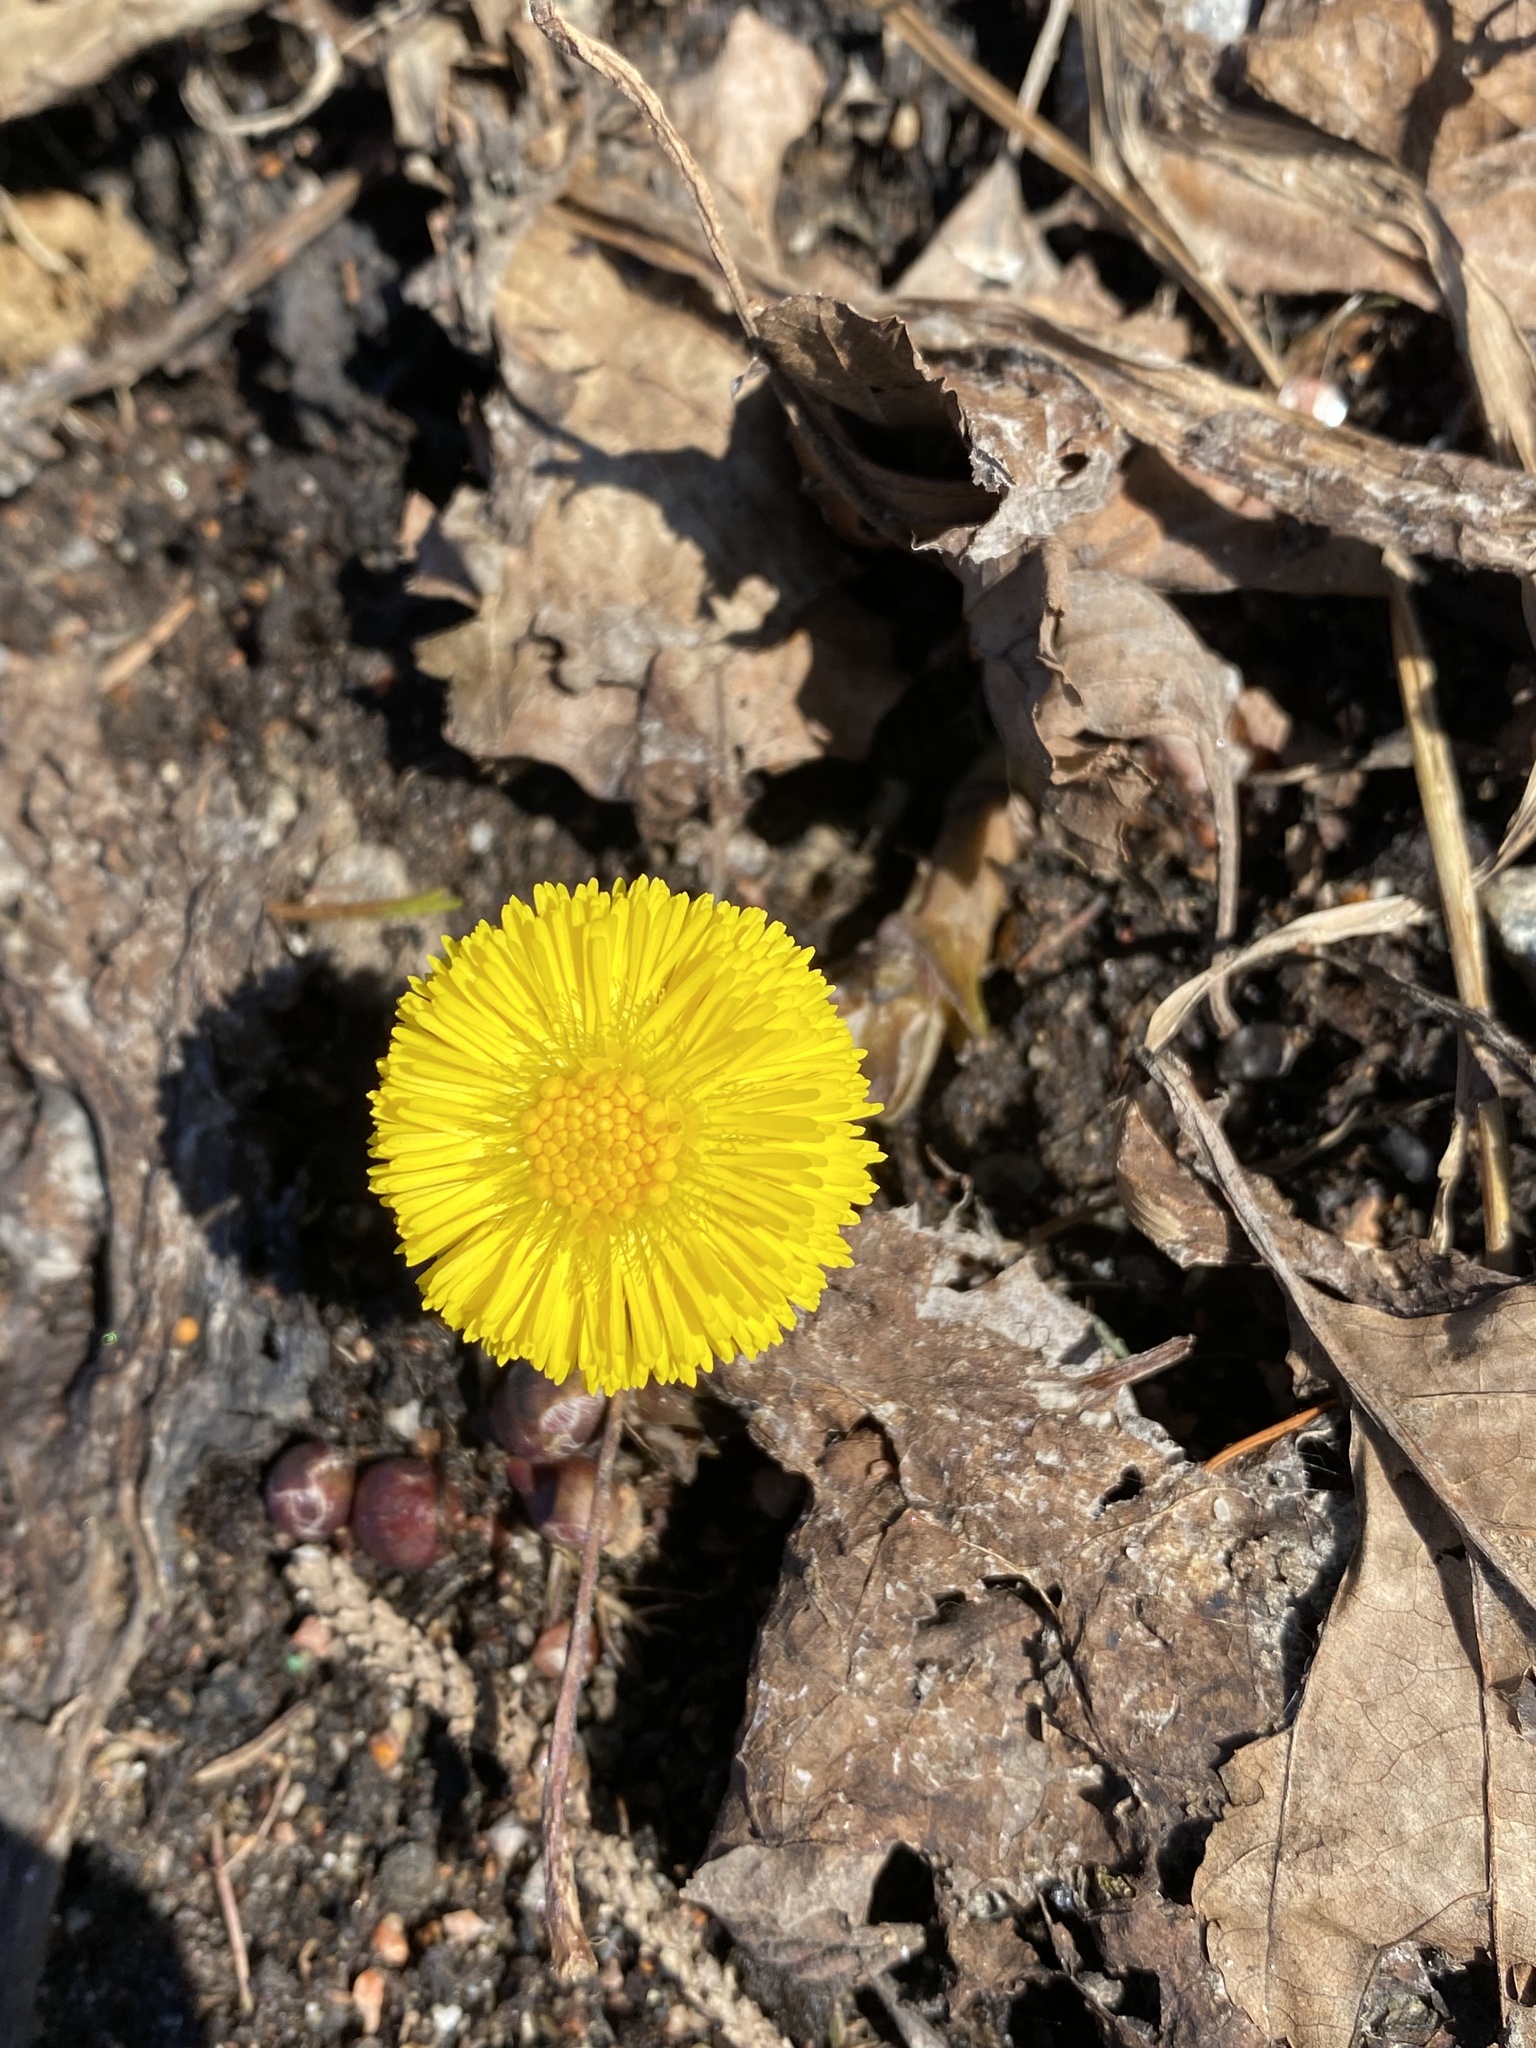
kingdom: Plantae
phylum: Tracheophyta
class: Magnoliopsida
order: Asterales
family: Asteraceae
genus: Tussilago
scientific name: Tussilago farfara
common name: Coltsfoot
